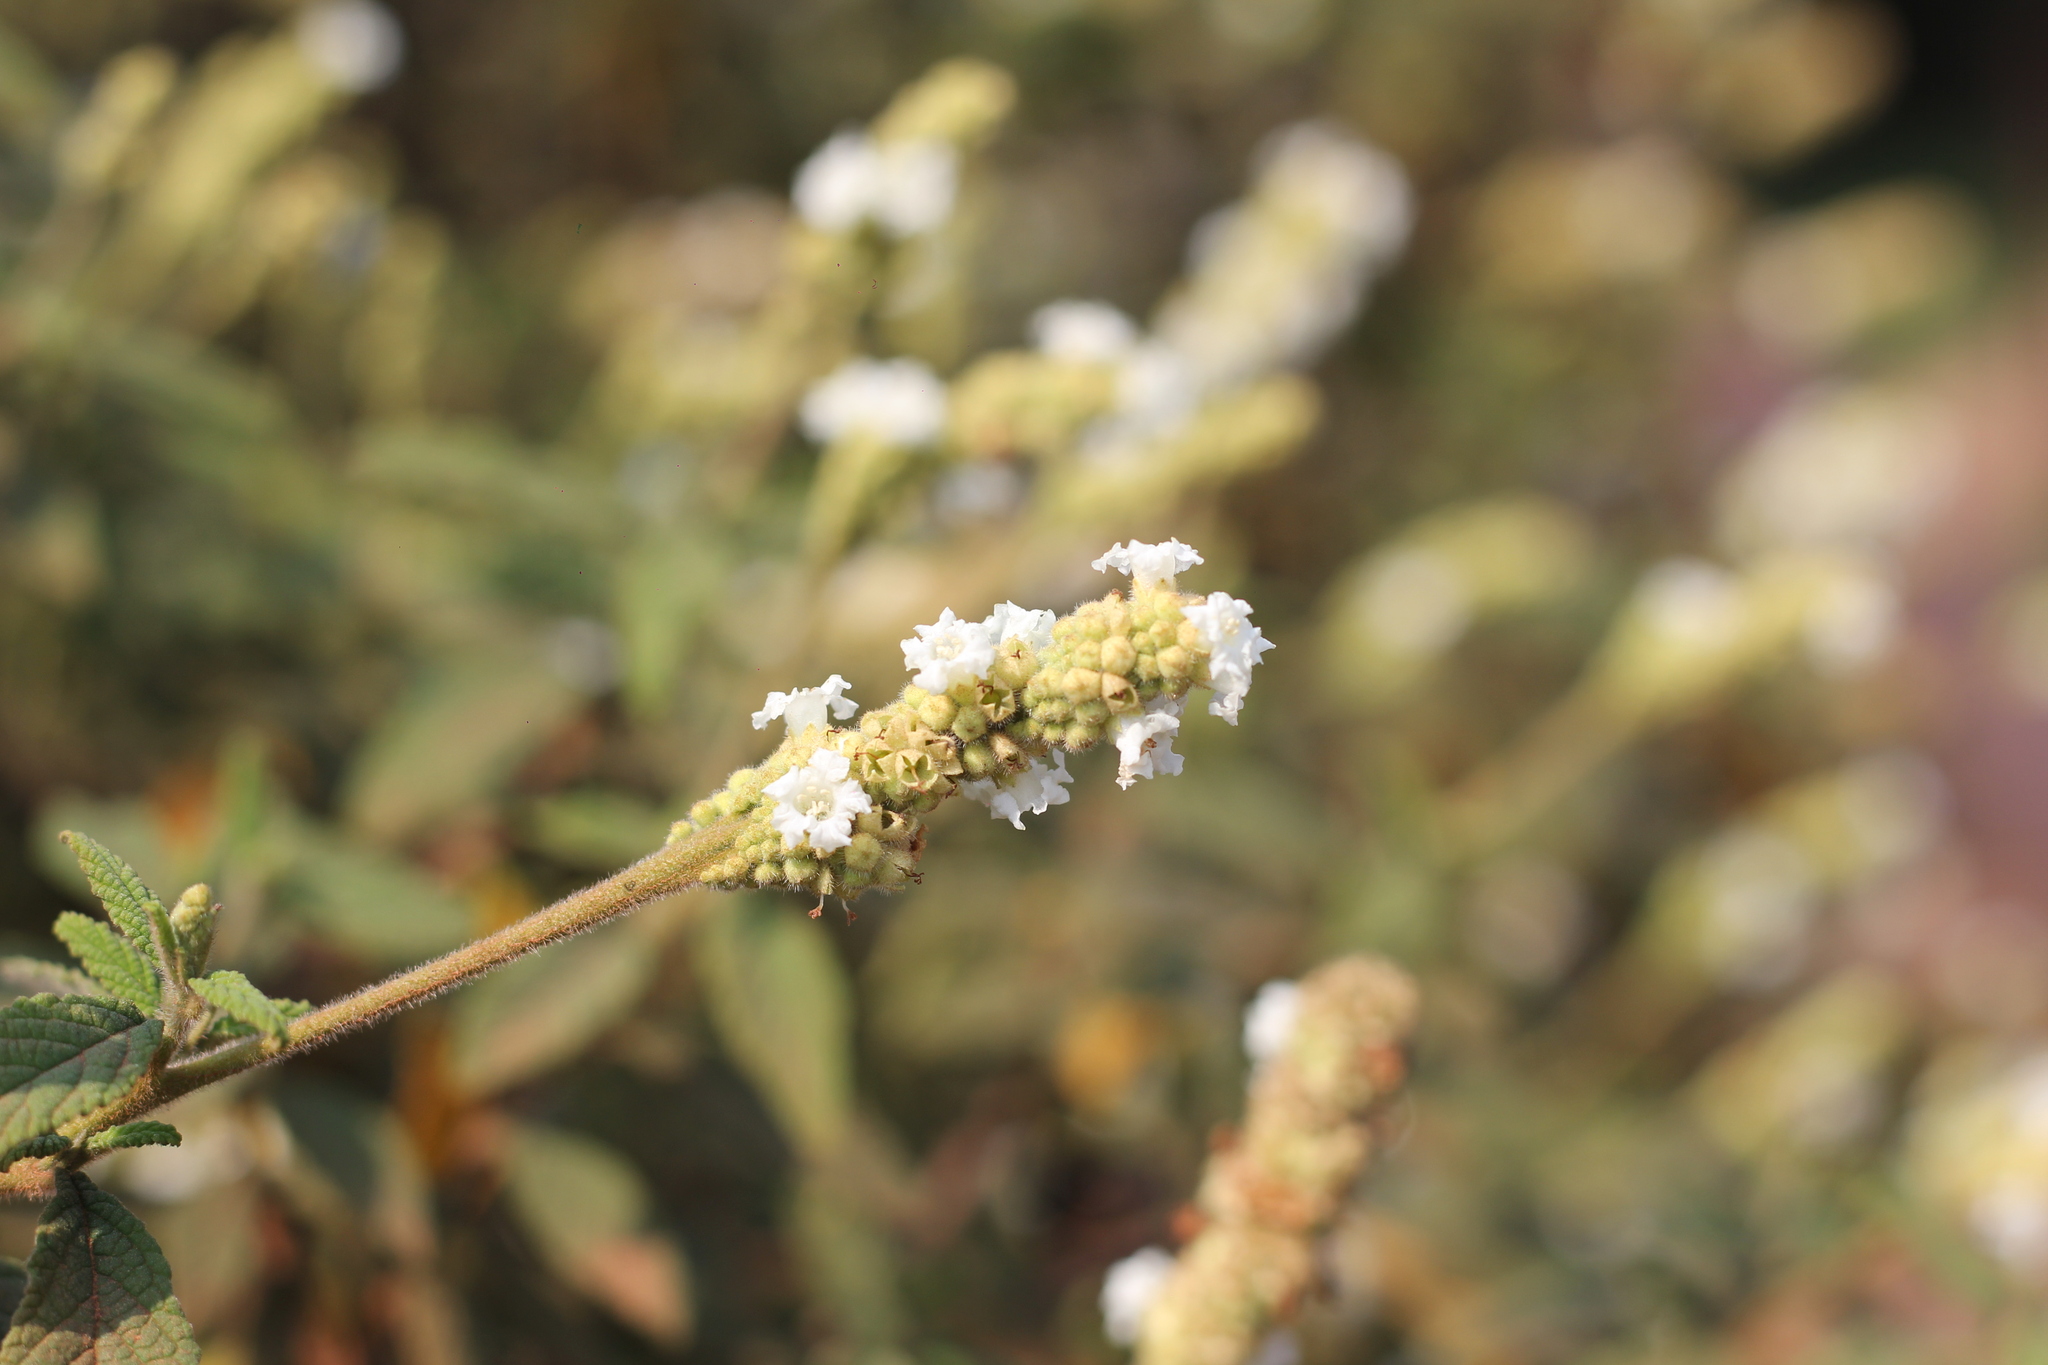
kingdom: Plantae
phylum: Tracheophyta
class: Magnoliopsida
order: Boraginales
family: Cordiaceae
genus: Varronia
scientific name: Varronia curassavica
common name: Black sage
